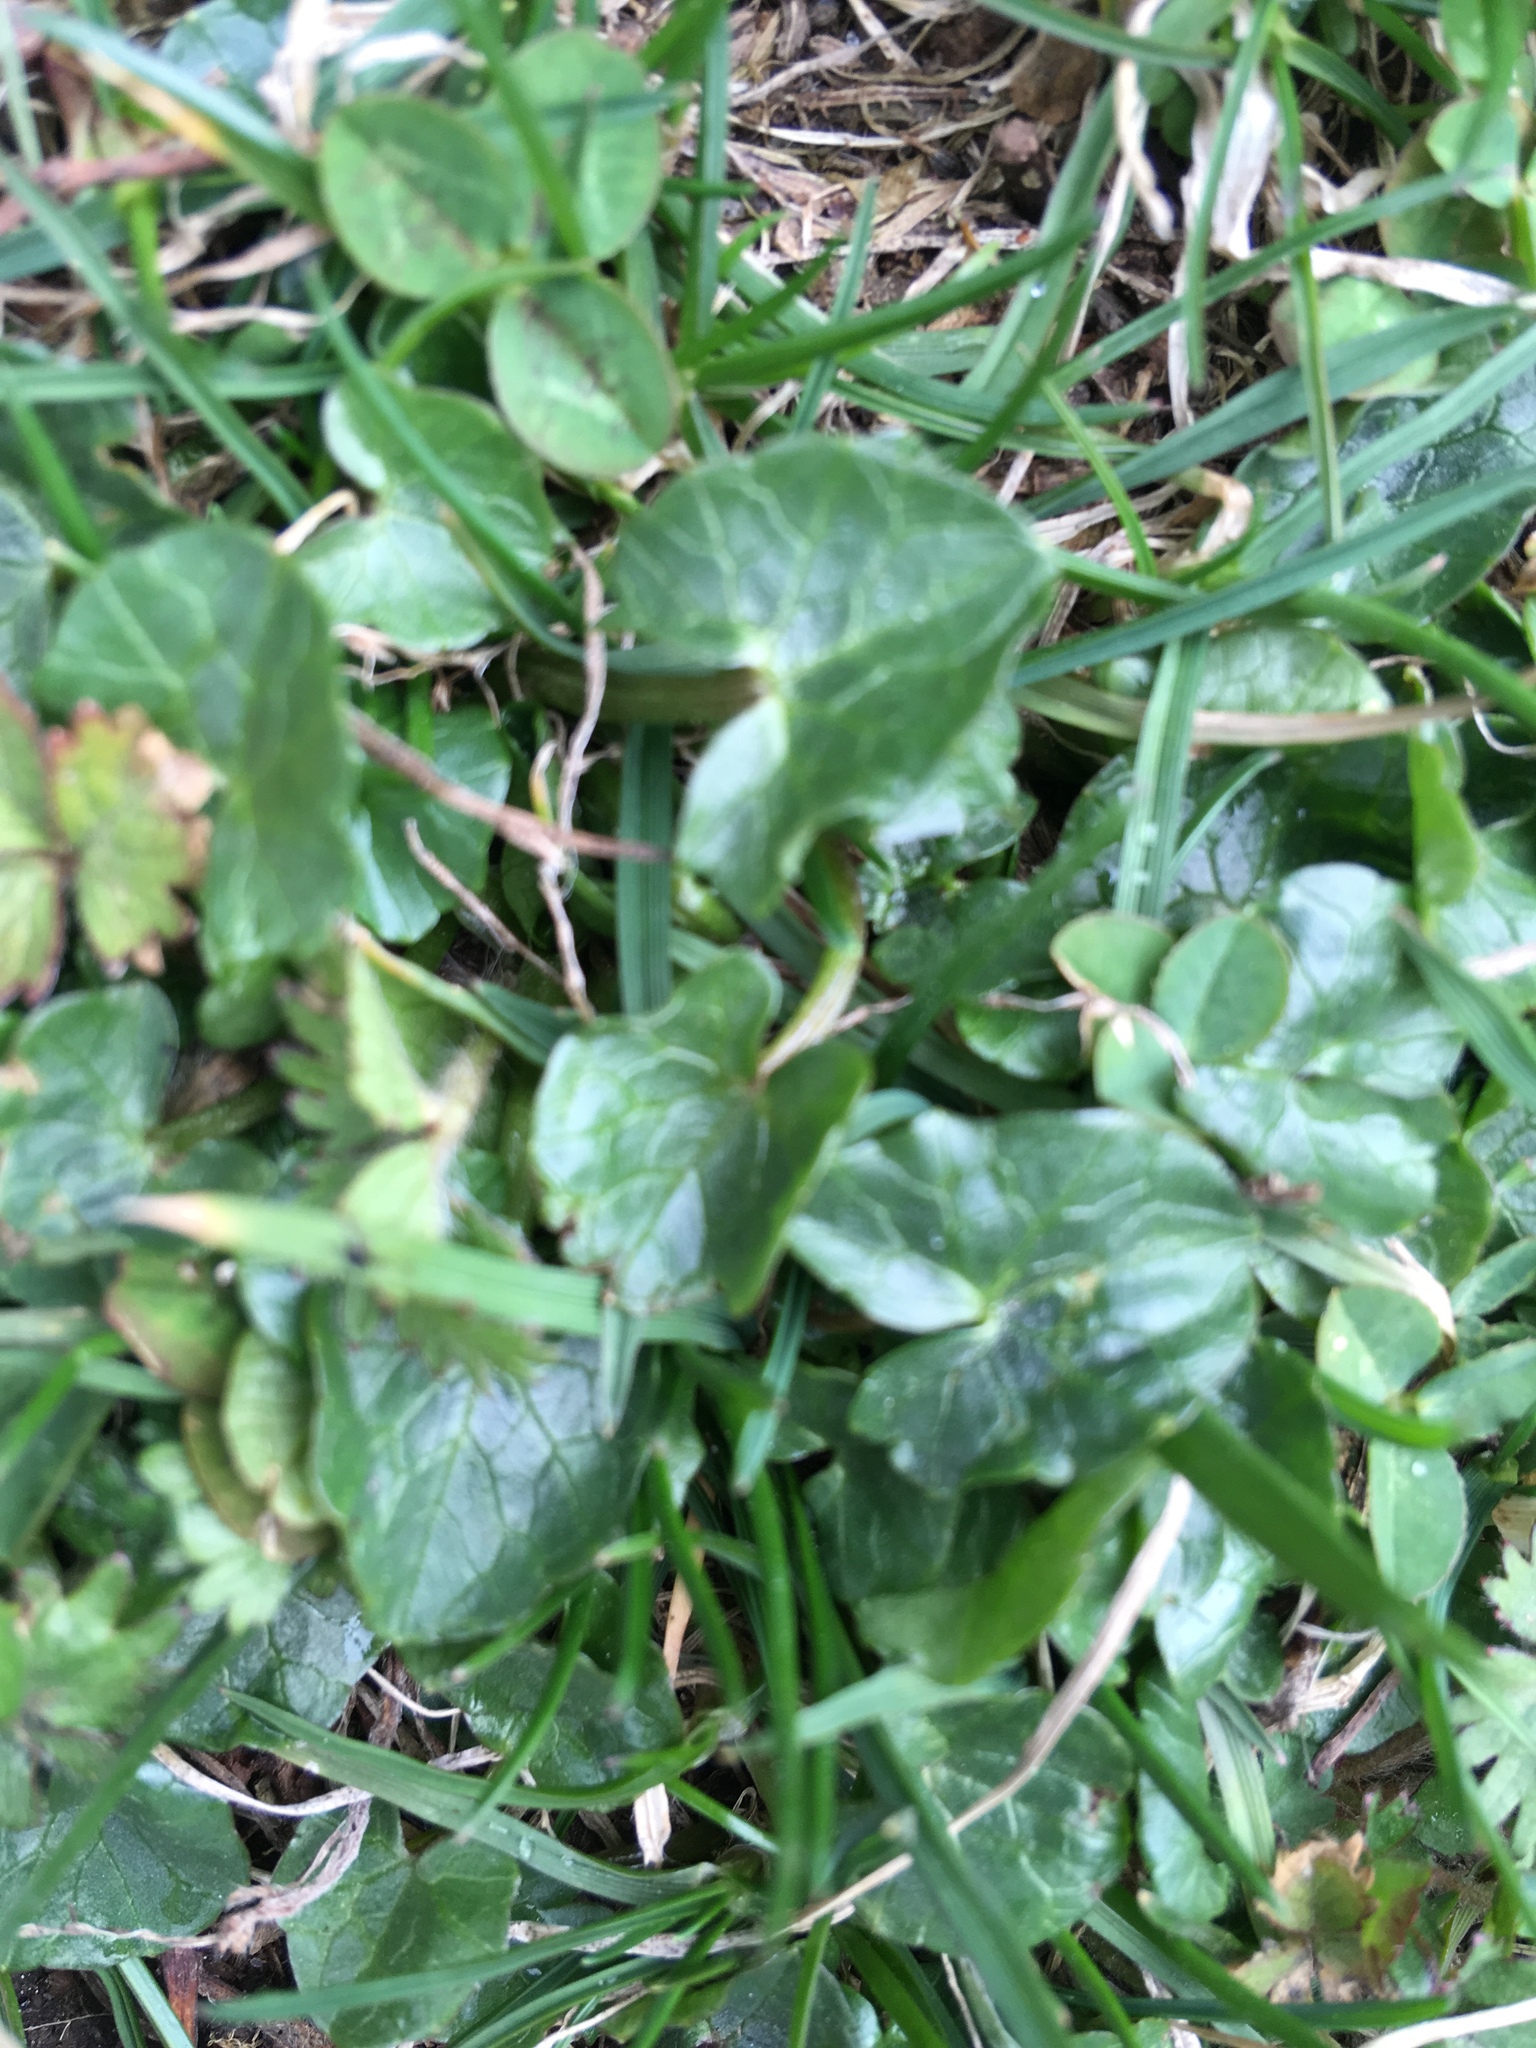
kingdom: Plantae
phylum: Tracheophyta
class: Magnoliopsida
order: Ranunculales
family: Ranunculaceae
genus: Ficaria
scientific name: Ficaria verna
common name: Lesser celandine
